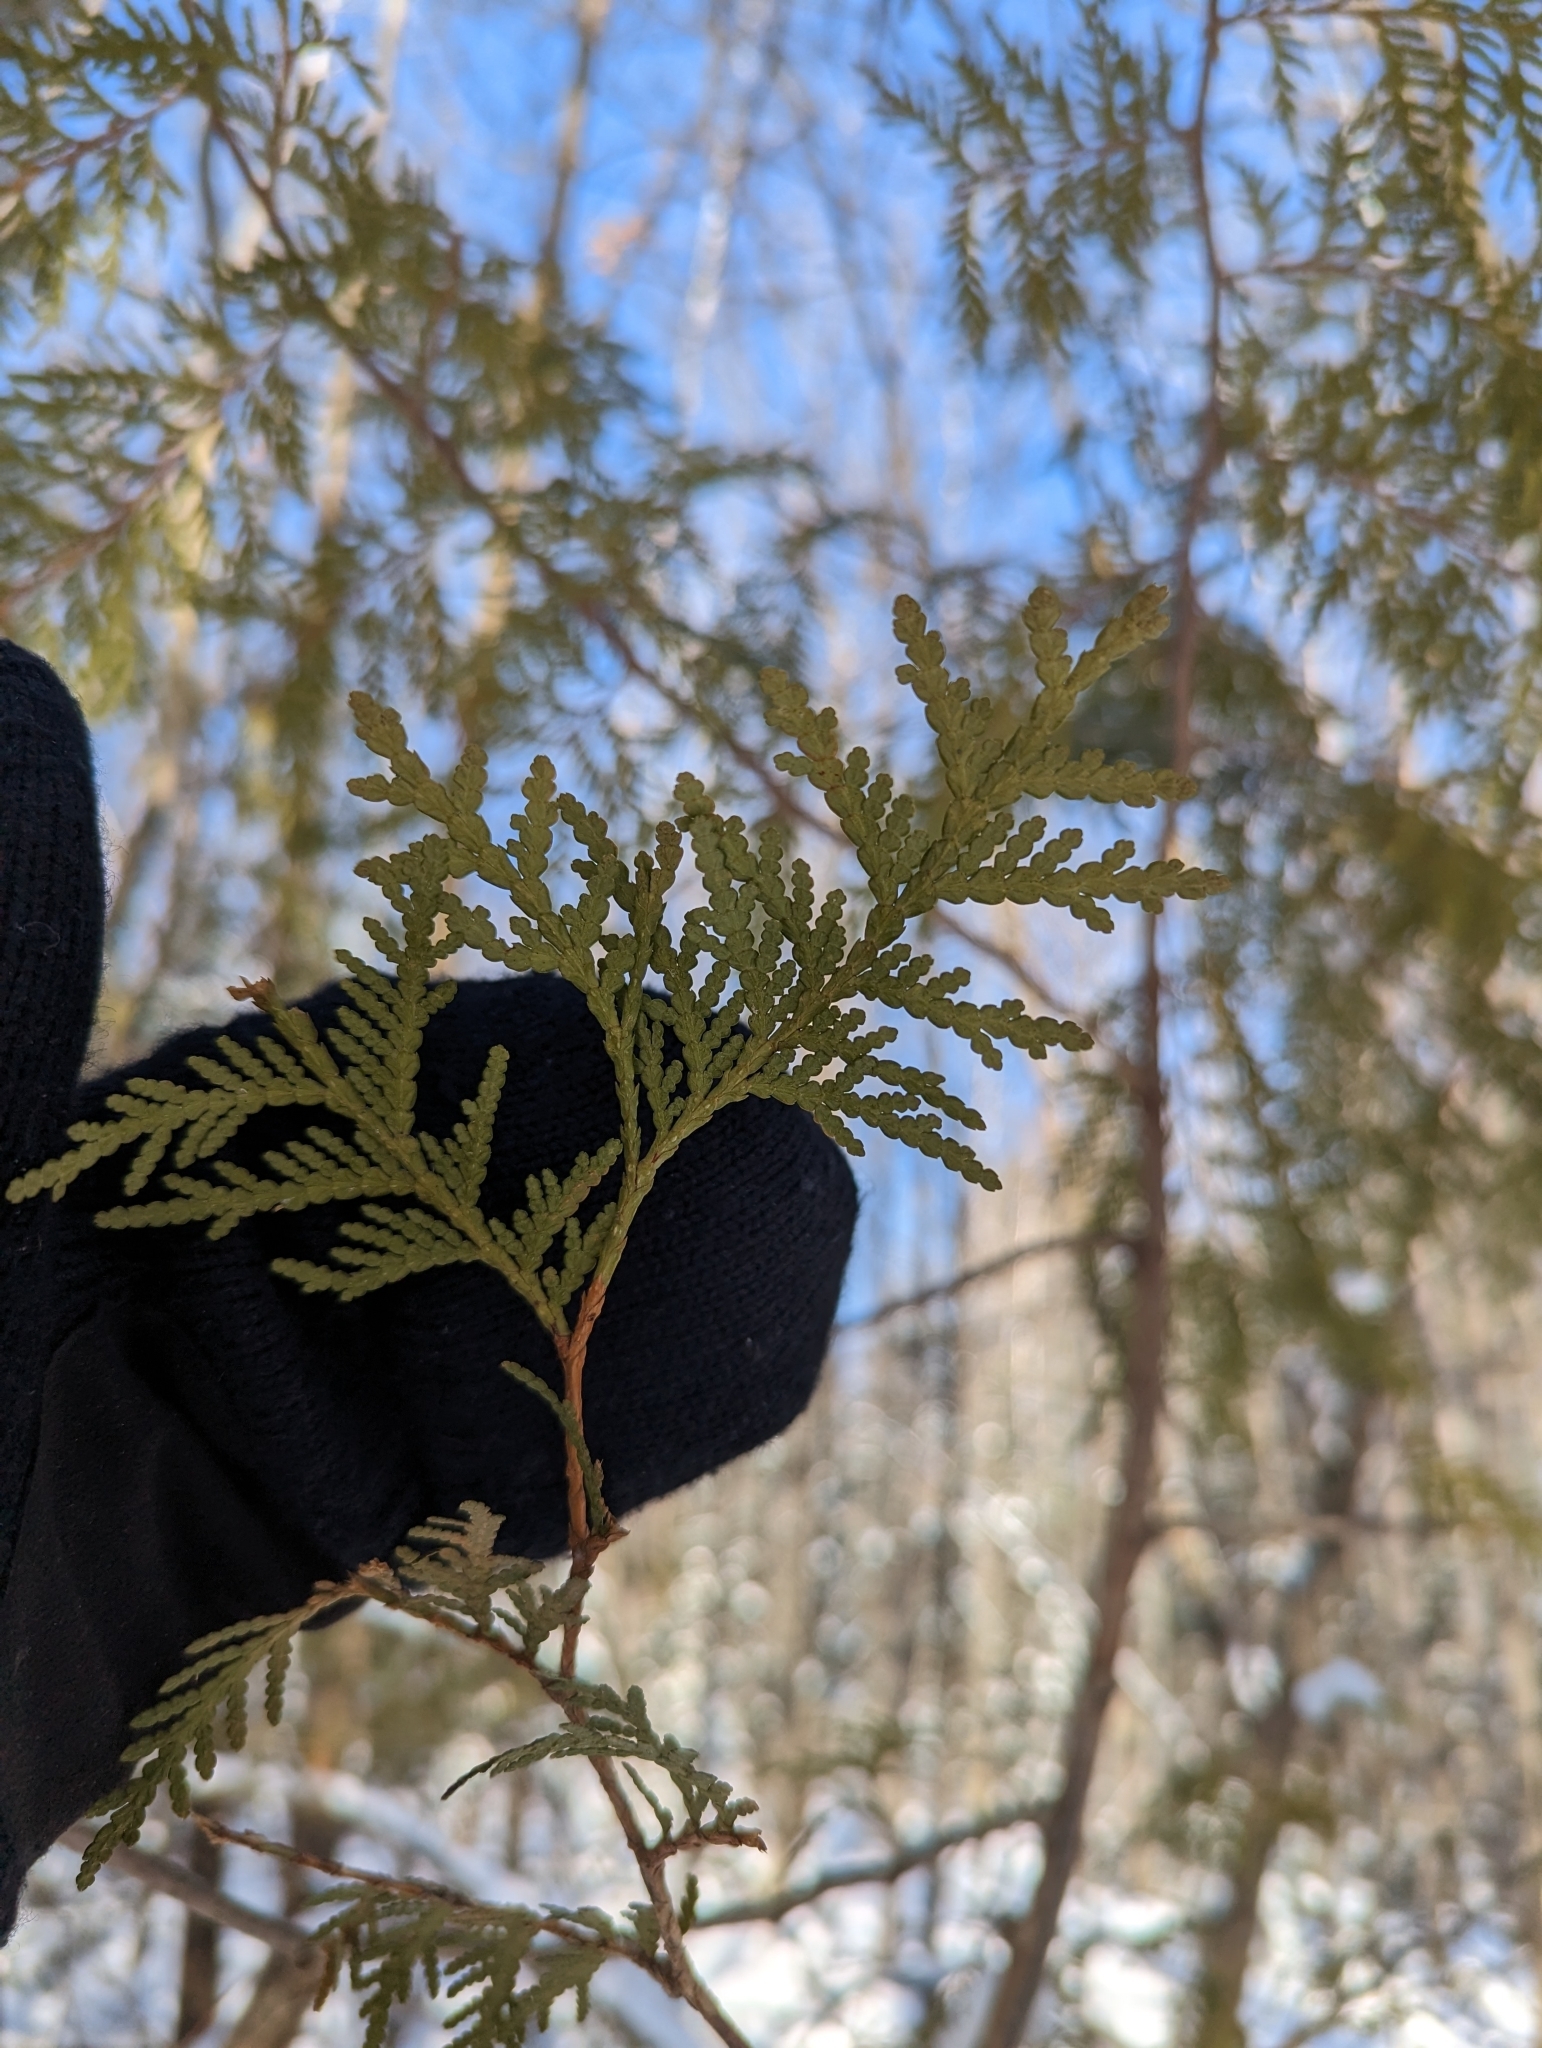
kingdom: Plantae
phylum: Tracheophyta
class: Pinopsida
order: Pinales
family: Cupressaceae
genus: Thuja
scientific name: Thuja occidentalis
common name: Northern white-cedar
